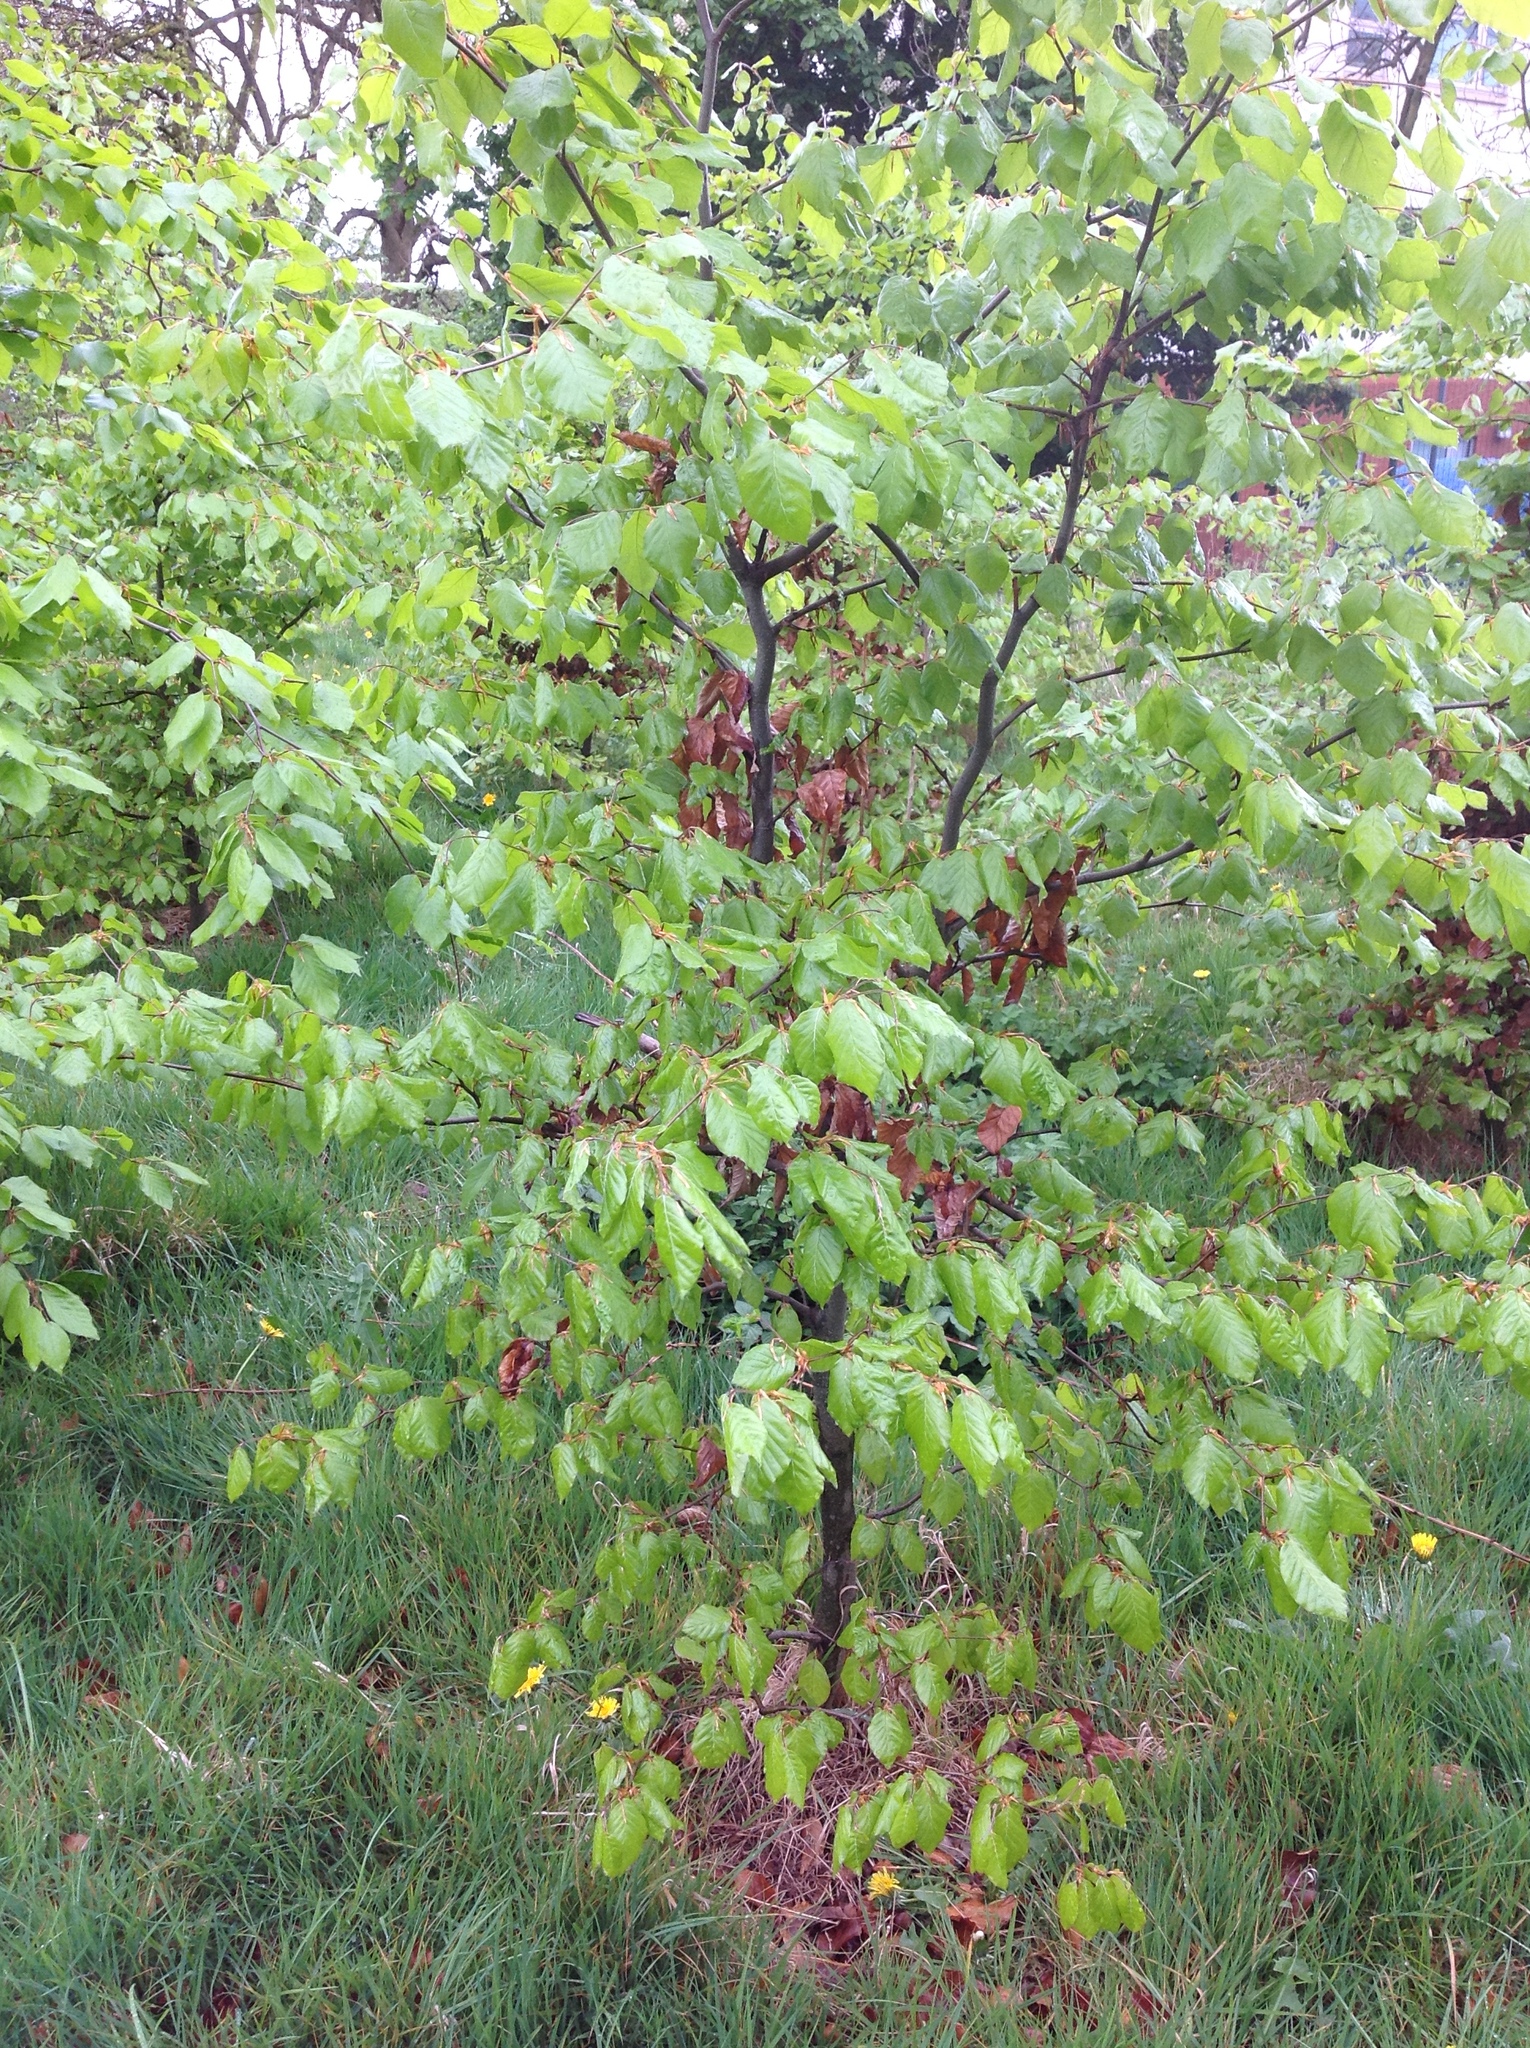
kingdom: Plantae
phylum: Tracheophyta
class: Magnoliopsida
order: Fagales
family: Fagaceae
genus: Fagus
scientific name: Fagus sylvatica
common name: Beech
